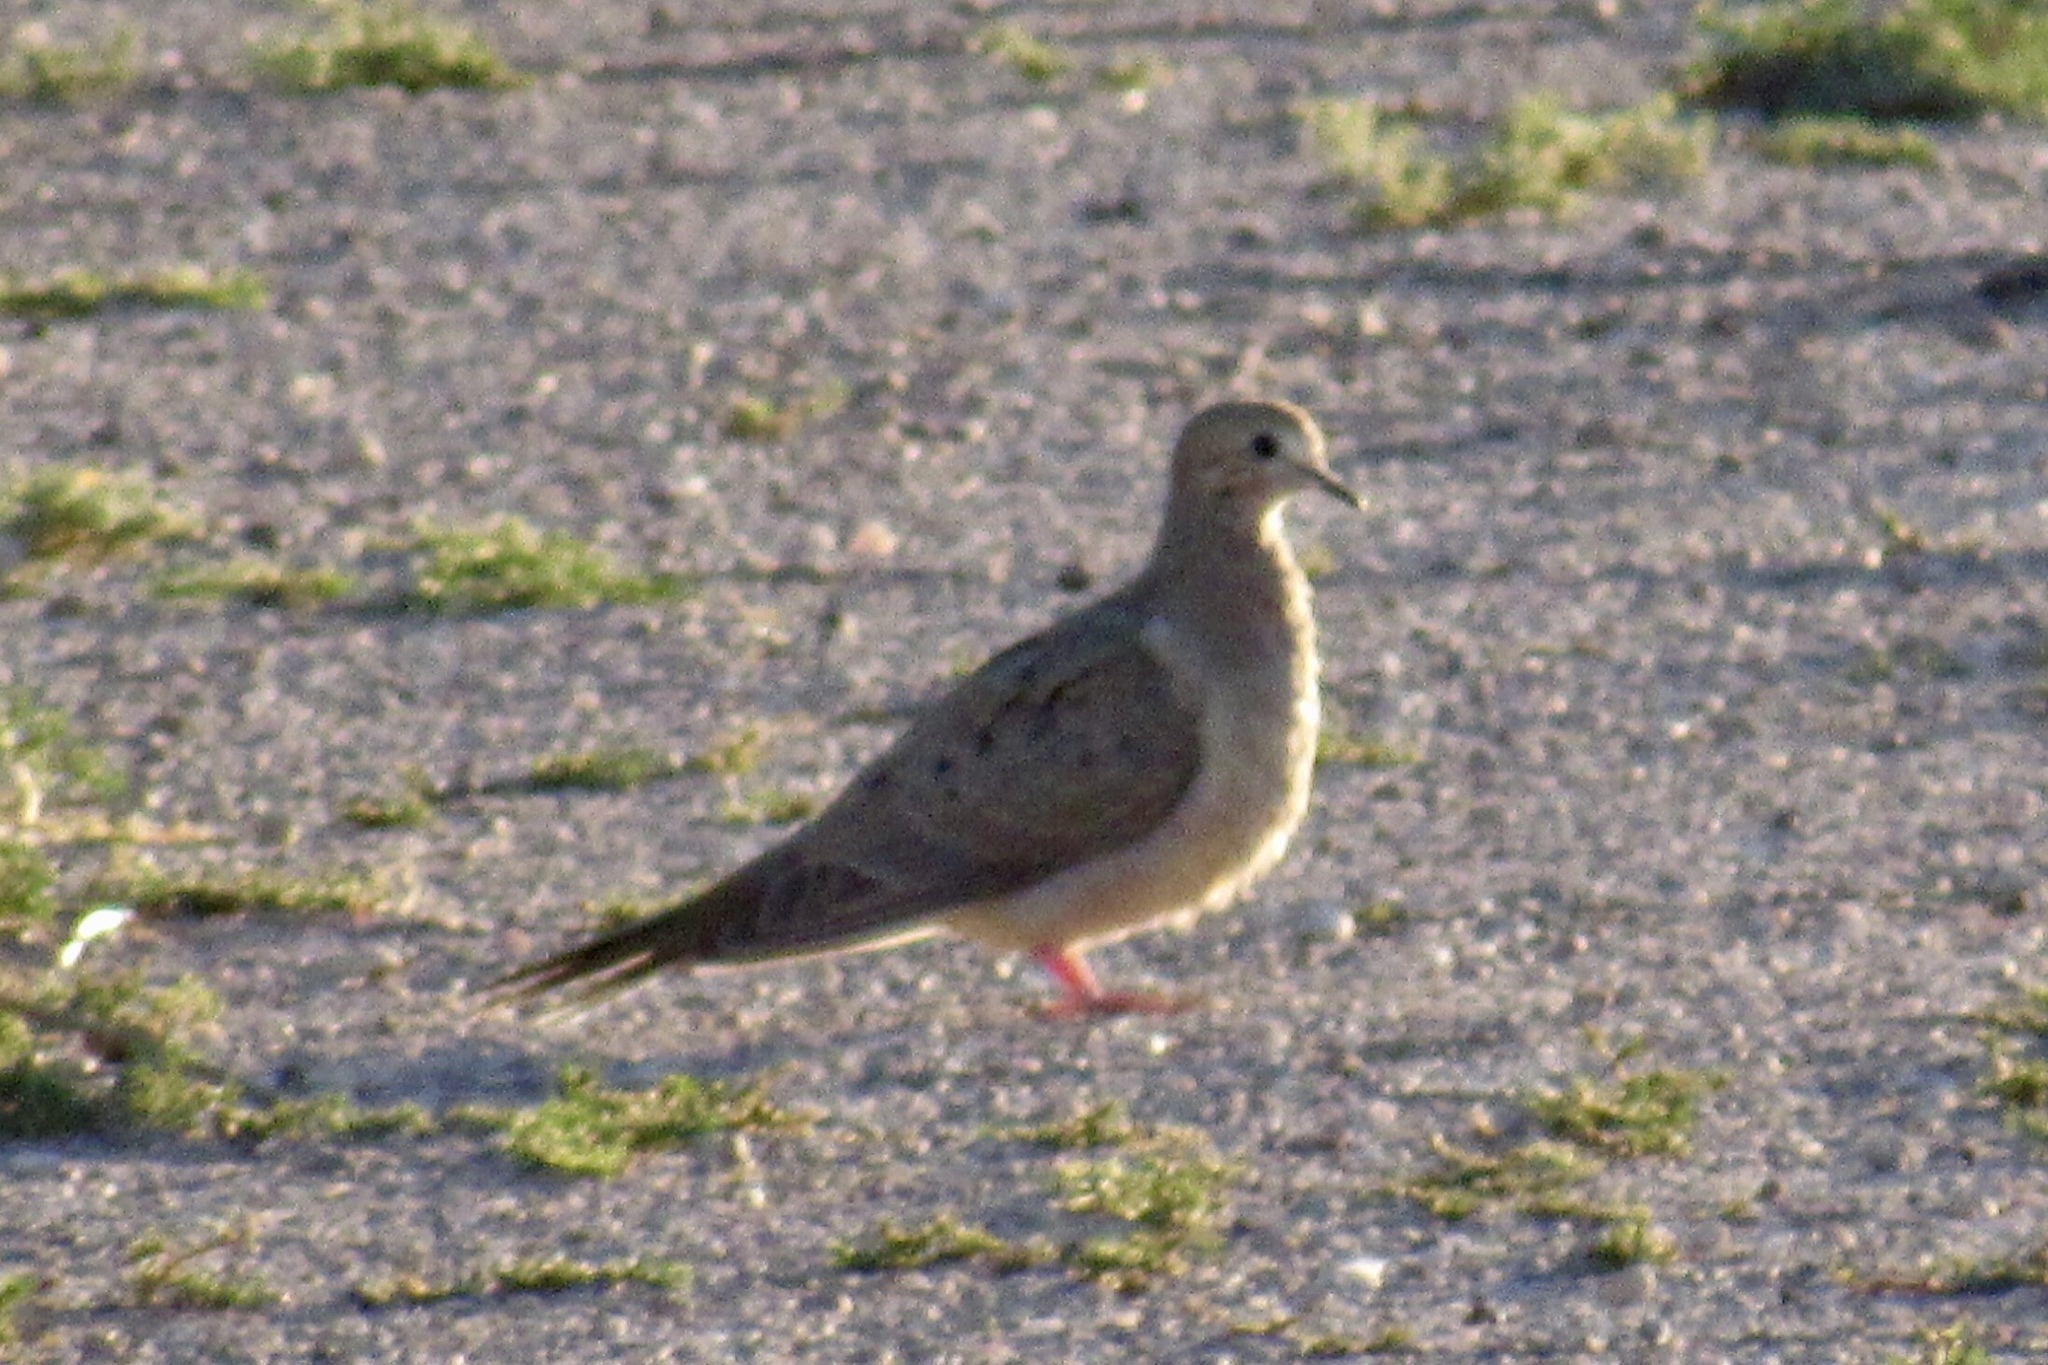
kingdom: Animalia
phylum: Chordata
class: Aves
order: Columbiformes
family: Columbidae
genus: Zenaida
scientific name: Zenaida macroura
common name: Mourning dove
